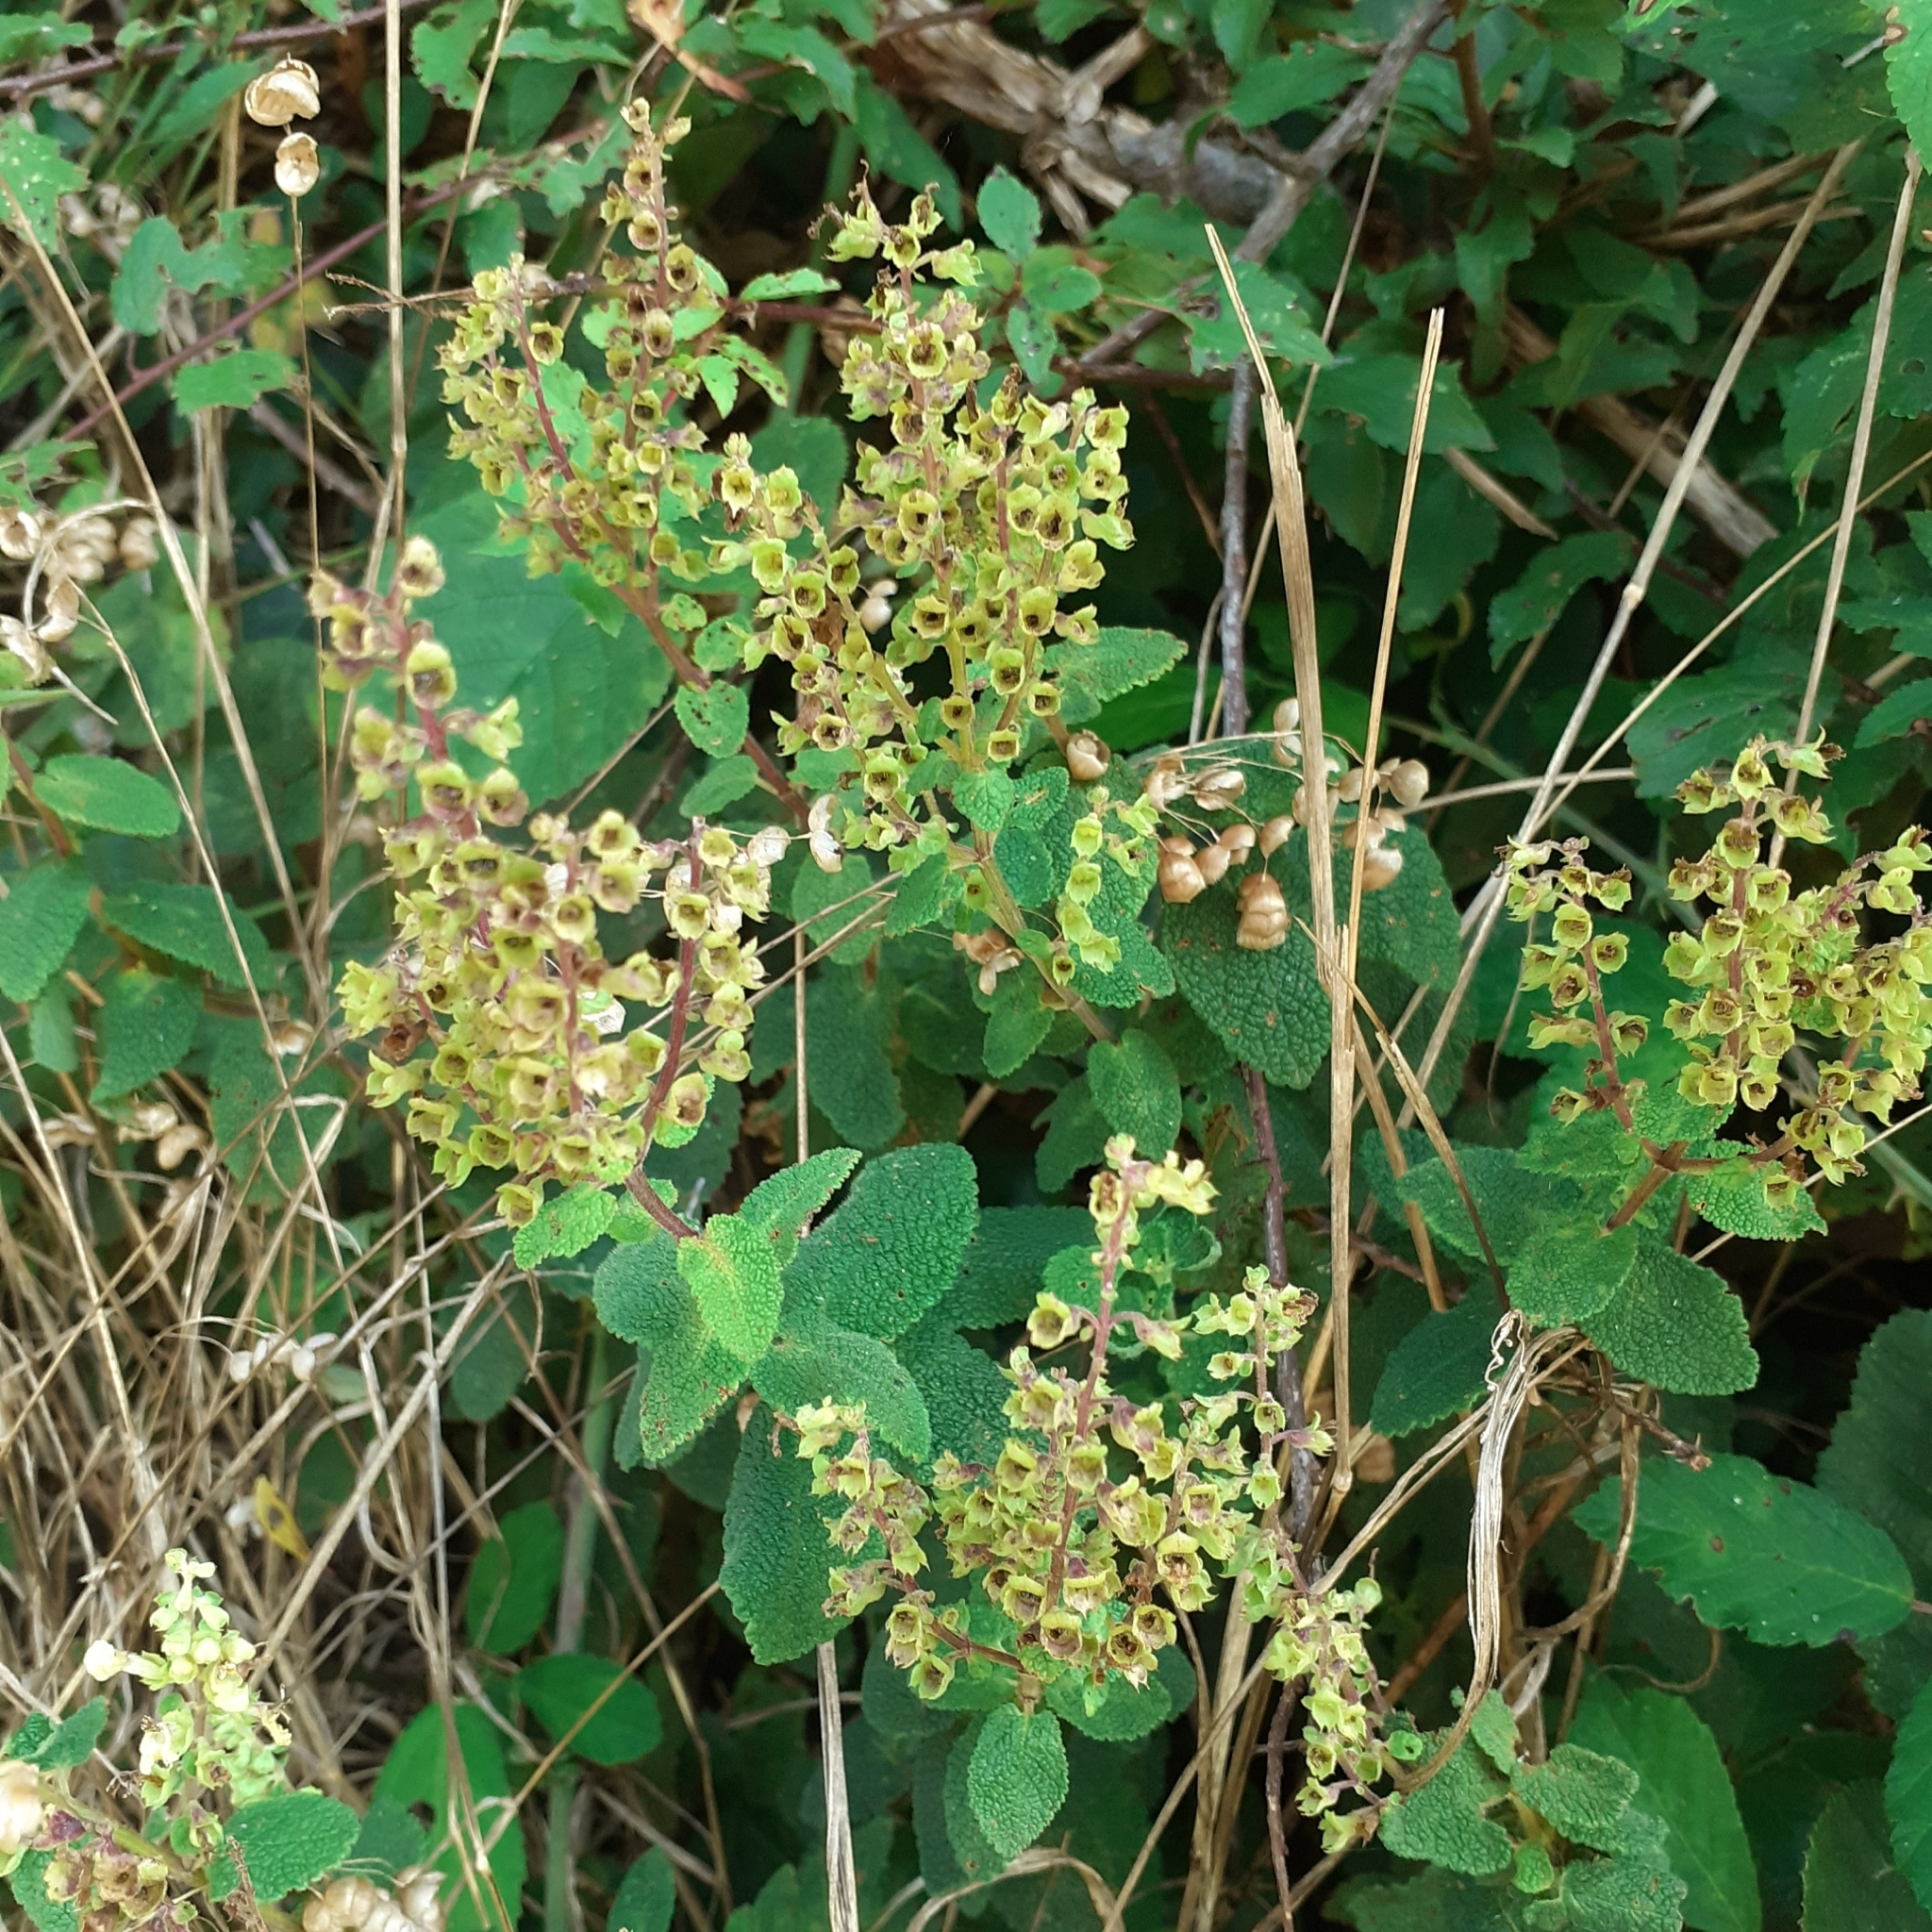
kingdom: Plantae
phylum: Tracheophyta
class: Magnoliopsida
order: Lamiales
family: Lamiaceae
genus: Teucrium
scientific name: Teucrium scorodonia
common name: Woodland germander
